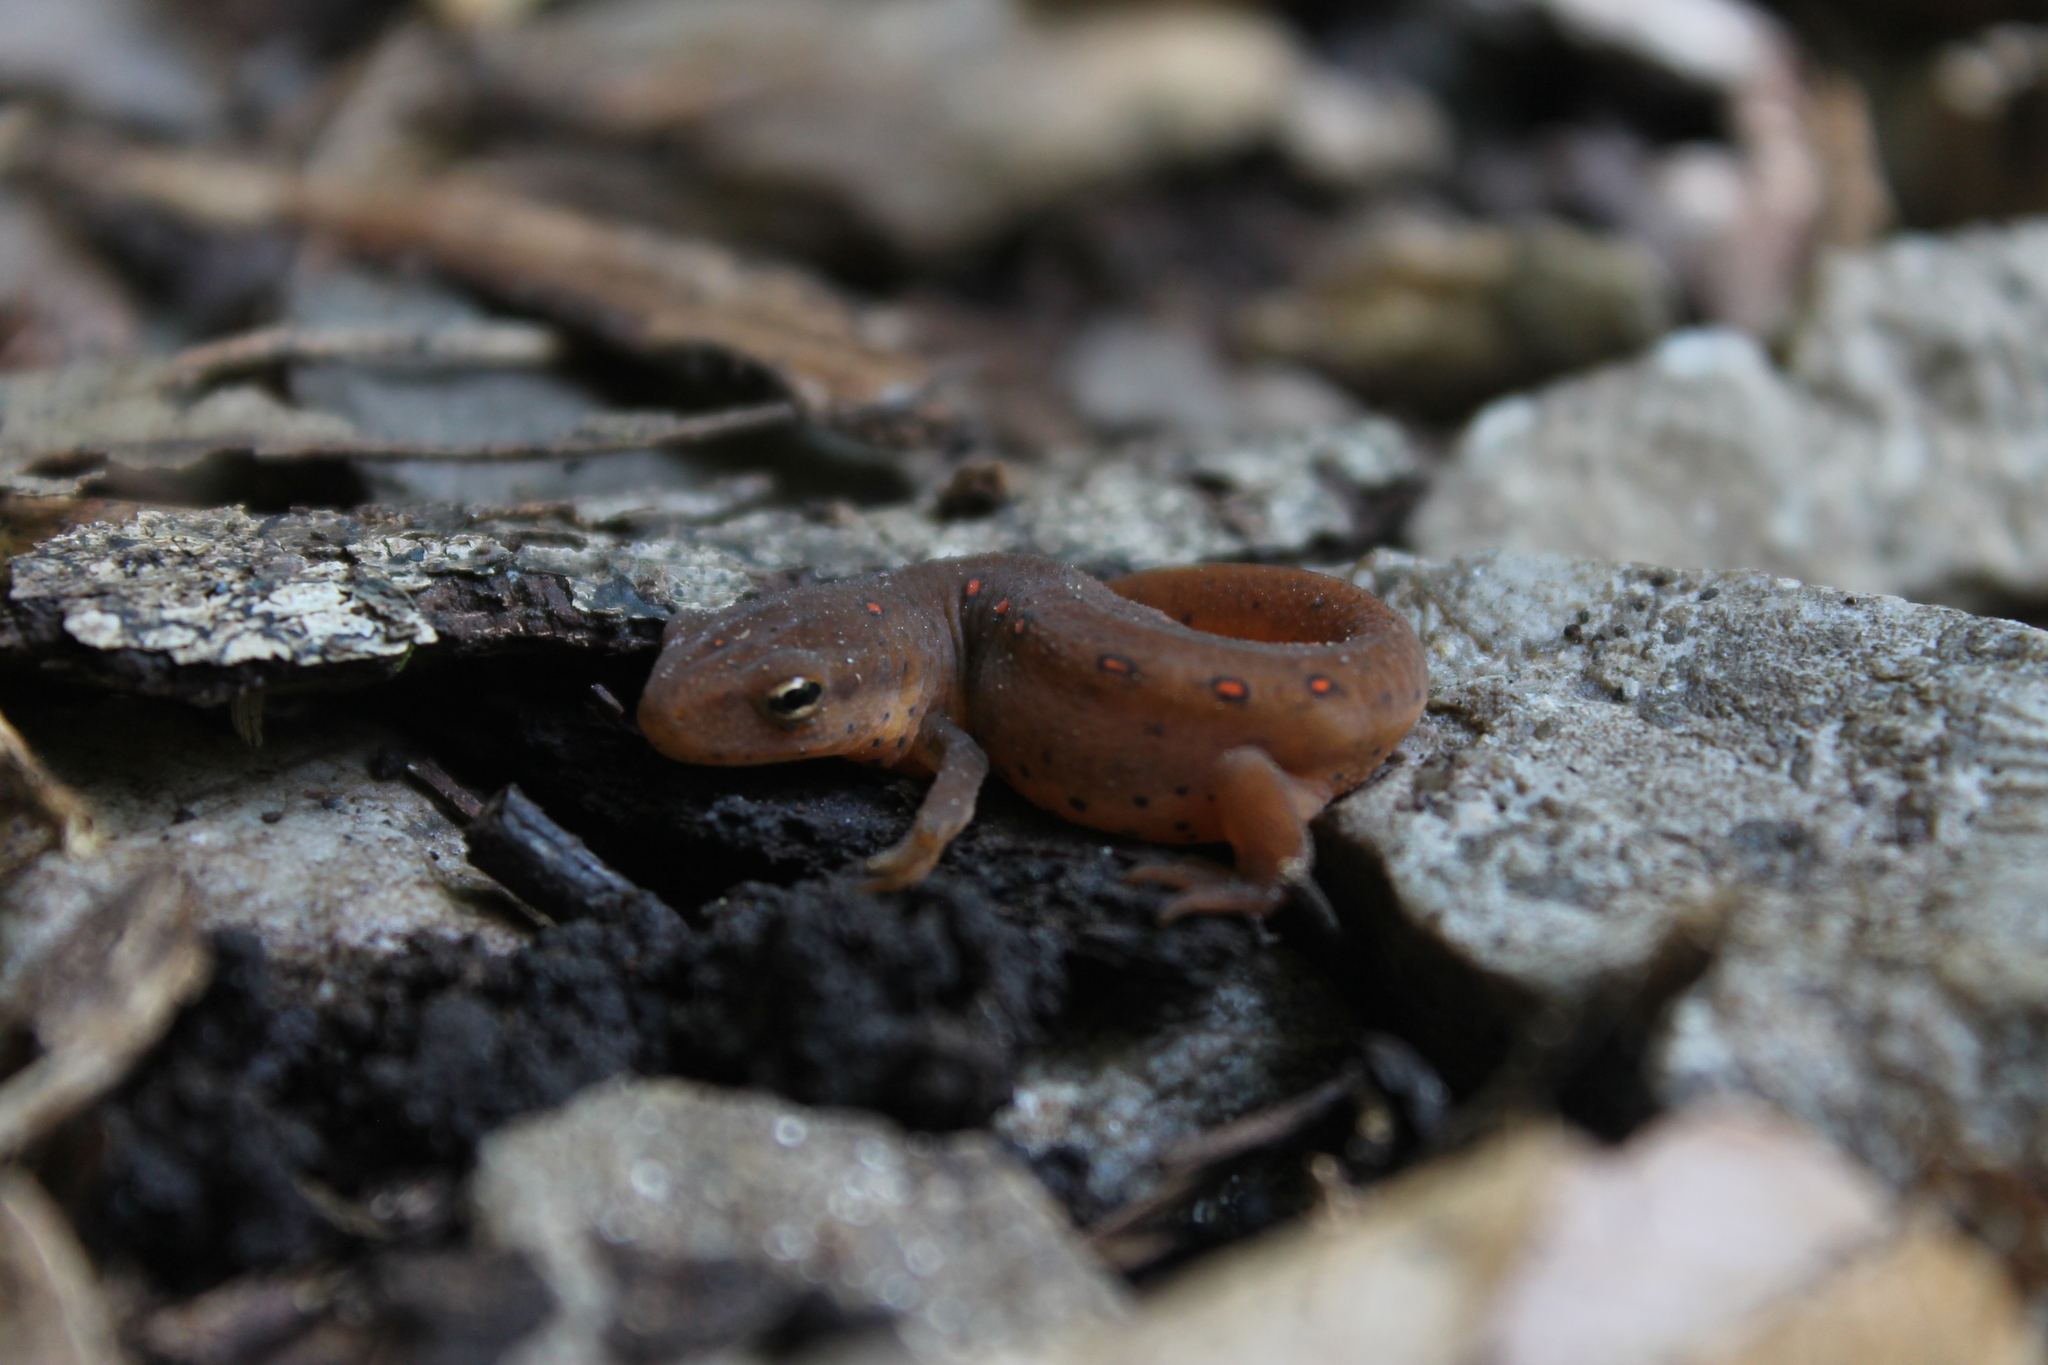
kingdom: Animalia
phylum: Chordata
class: Amphibia
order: Caudata
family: Salamandridae
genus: Notophthalmus
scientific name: Notophthalmus viridescens
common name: Eastern newt
